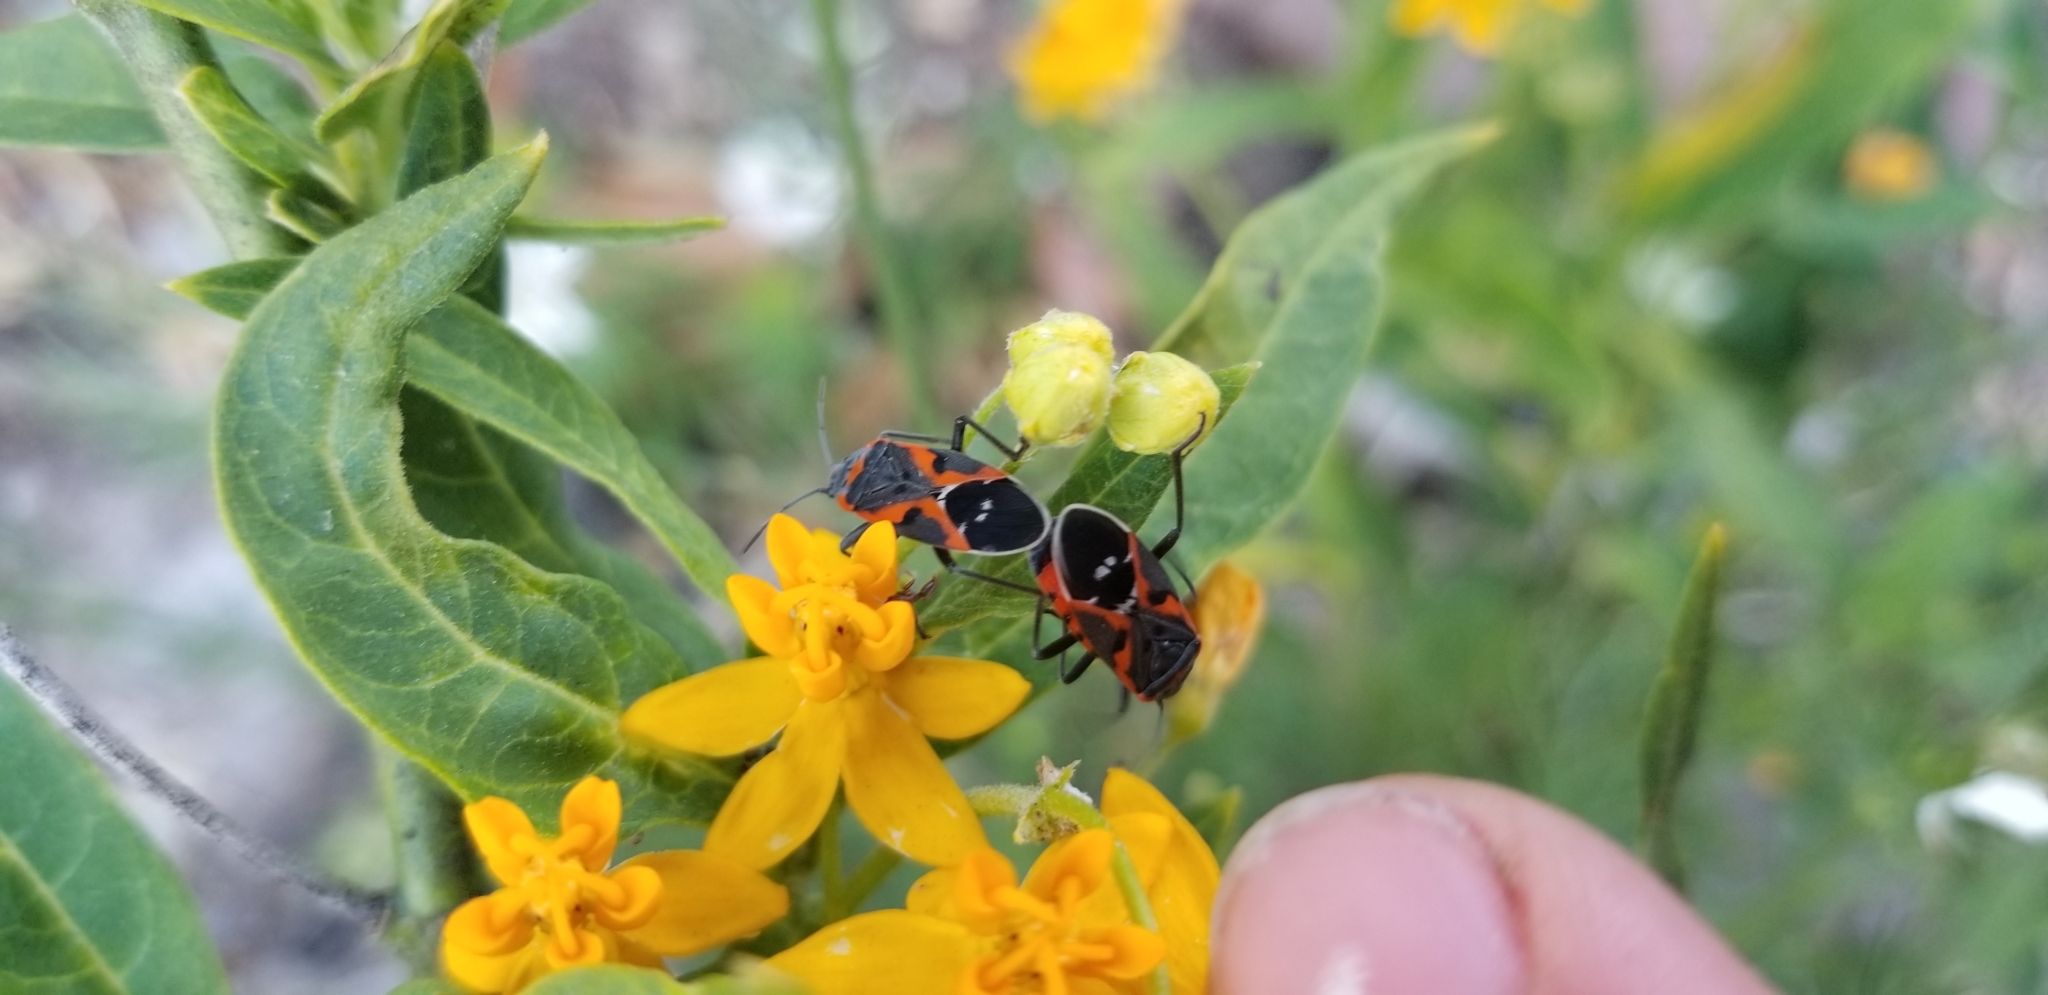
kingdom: Animalia
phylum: Arthropoda
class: Insecta
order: Hemiptera
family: Lygaeidae
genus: Lygaeus
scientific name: Lygaeus kalmii
